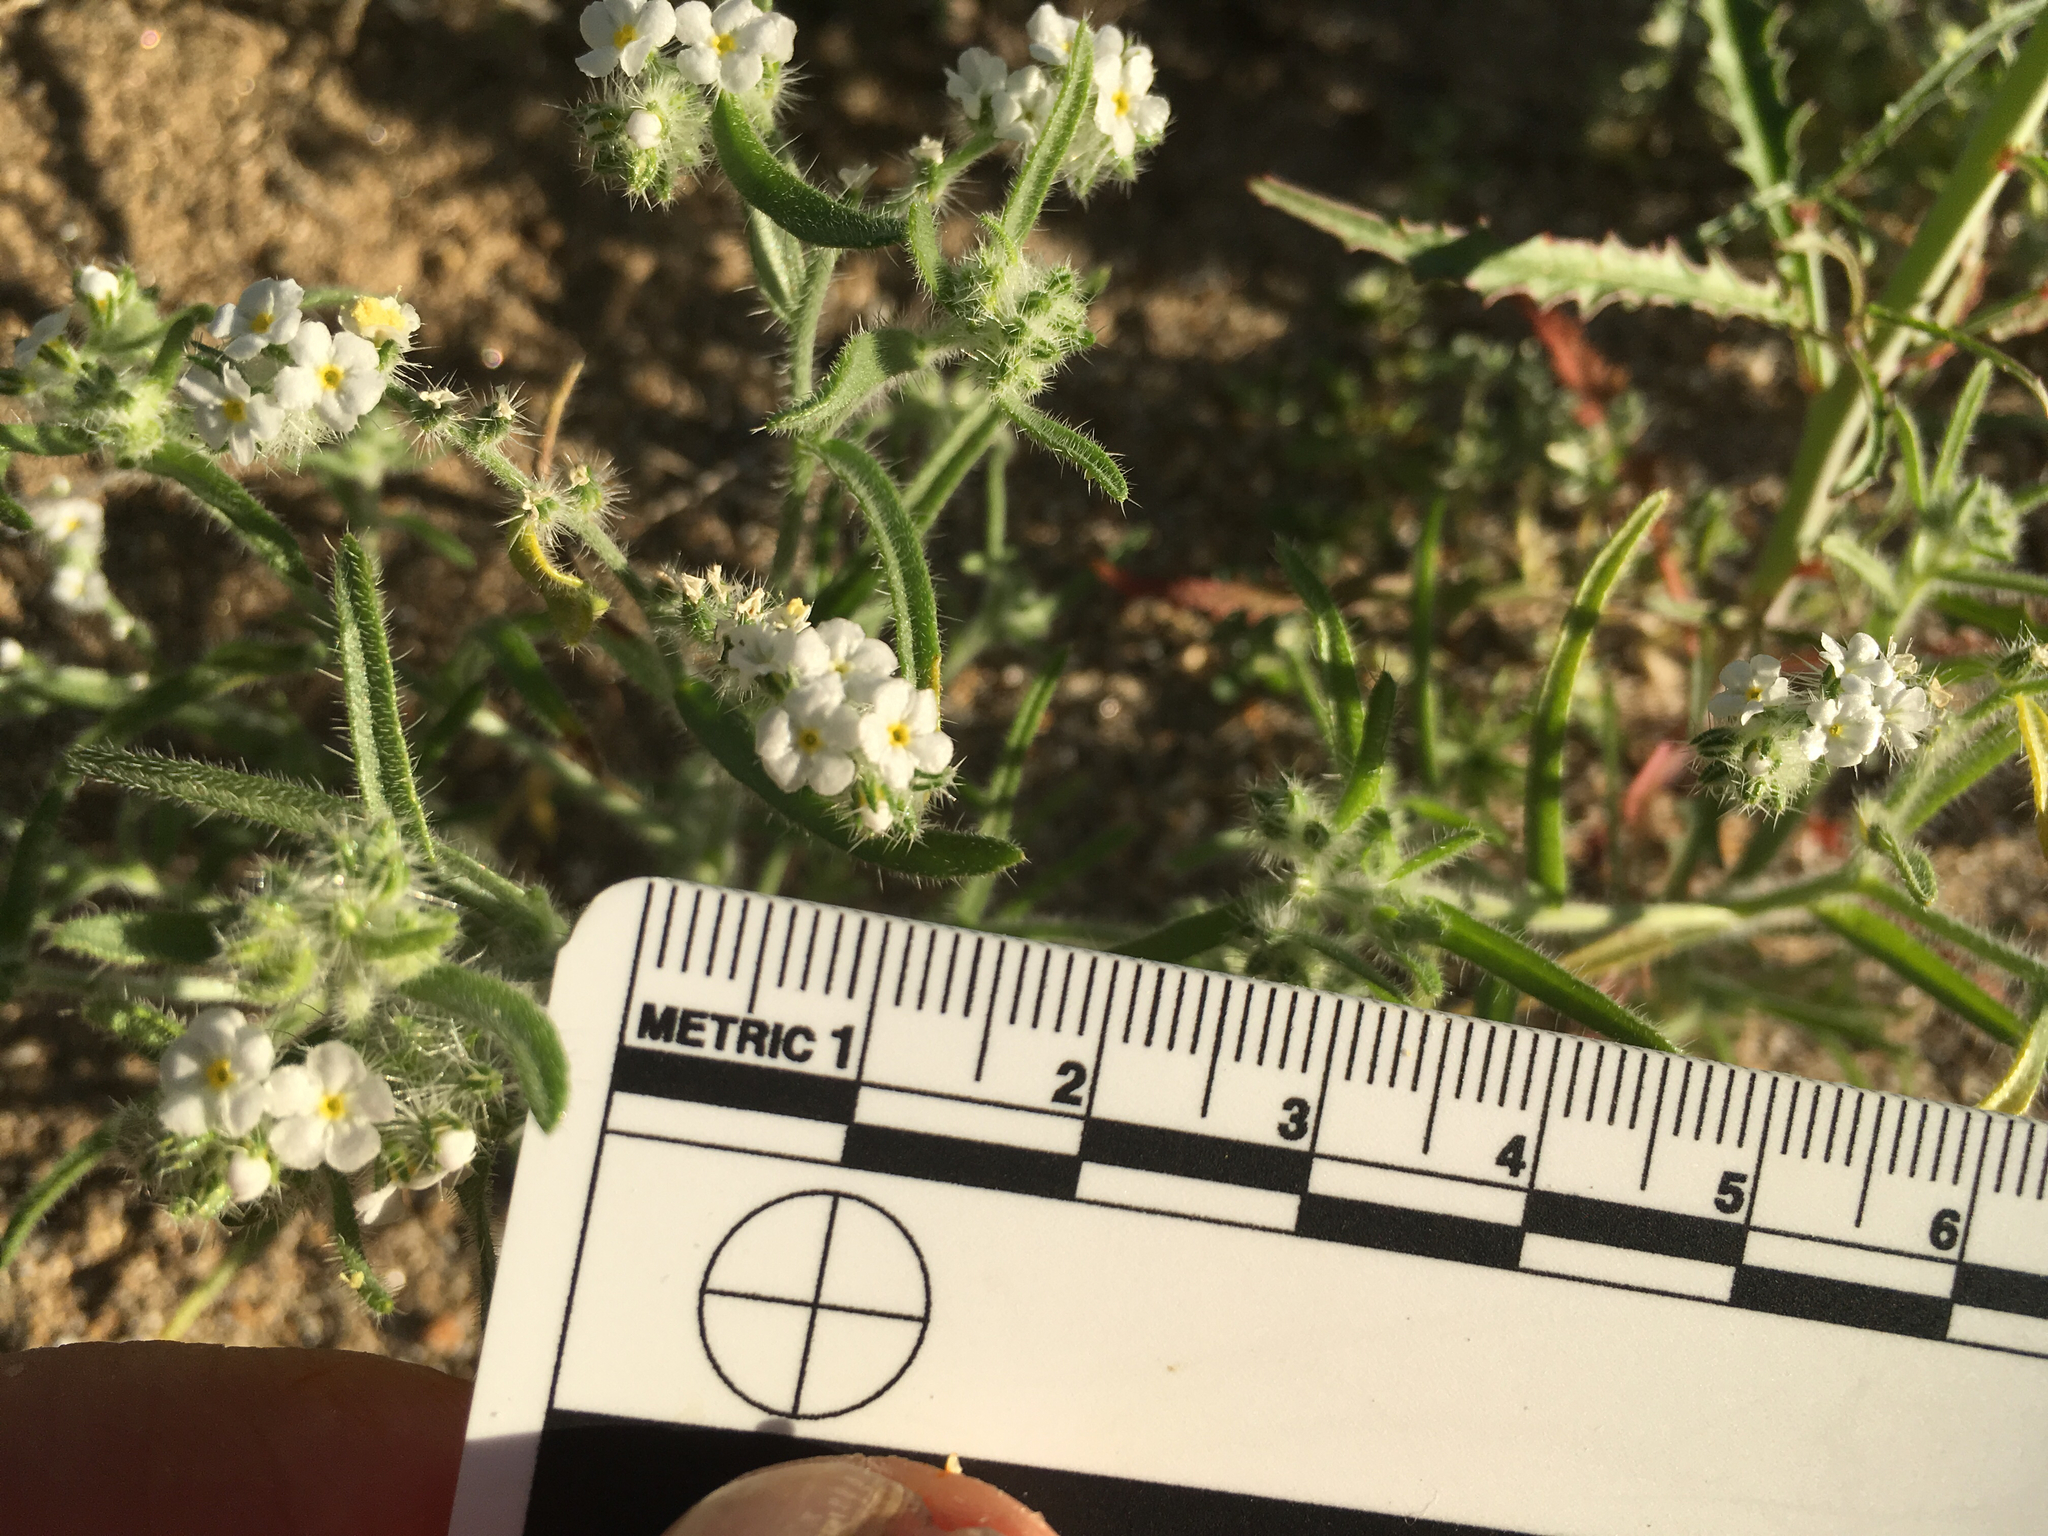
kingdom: Plantae
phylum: Tracheophyta
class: Magnoliopsida
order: Boraginales
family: Boraginaceae
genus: Johnstonella
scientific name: Johnstonella angustifolia
